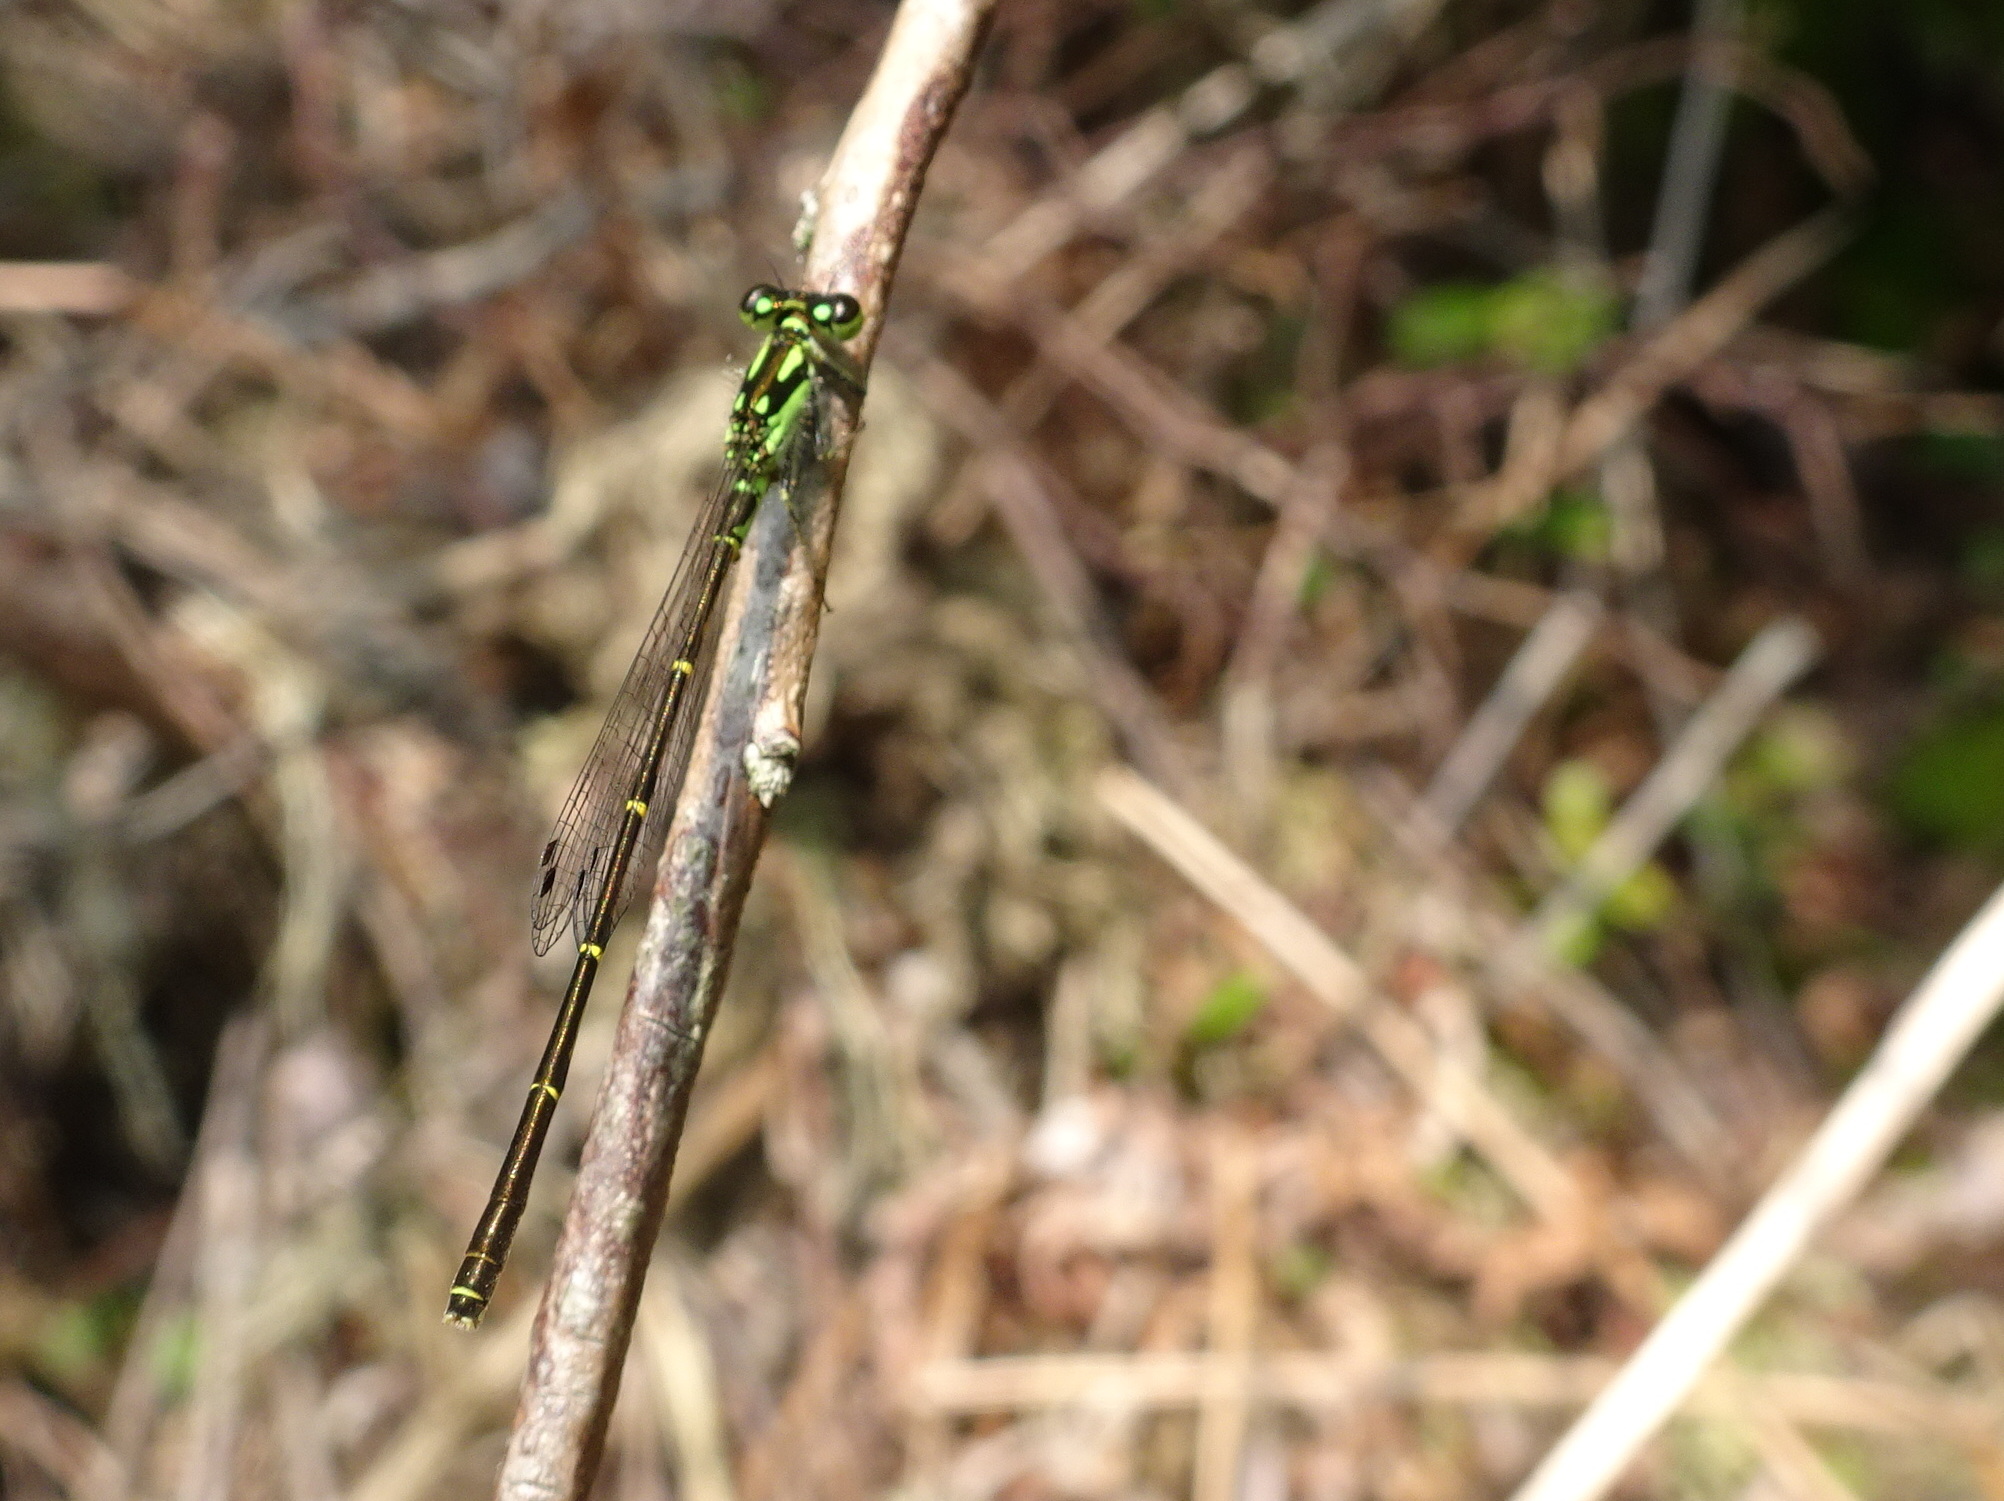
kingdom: Animalia
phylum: Arthropoda
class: Insecta
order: Odonata
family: Coenagrionidae
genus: Ischnura
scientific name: Ischnura posita
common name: Fragile forktail
